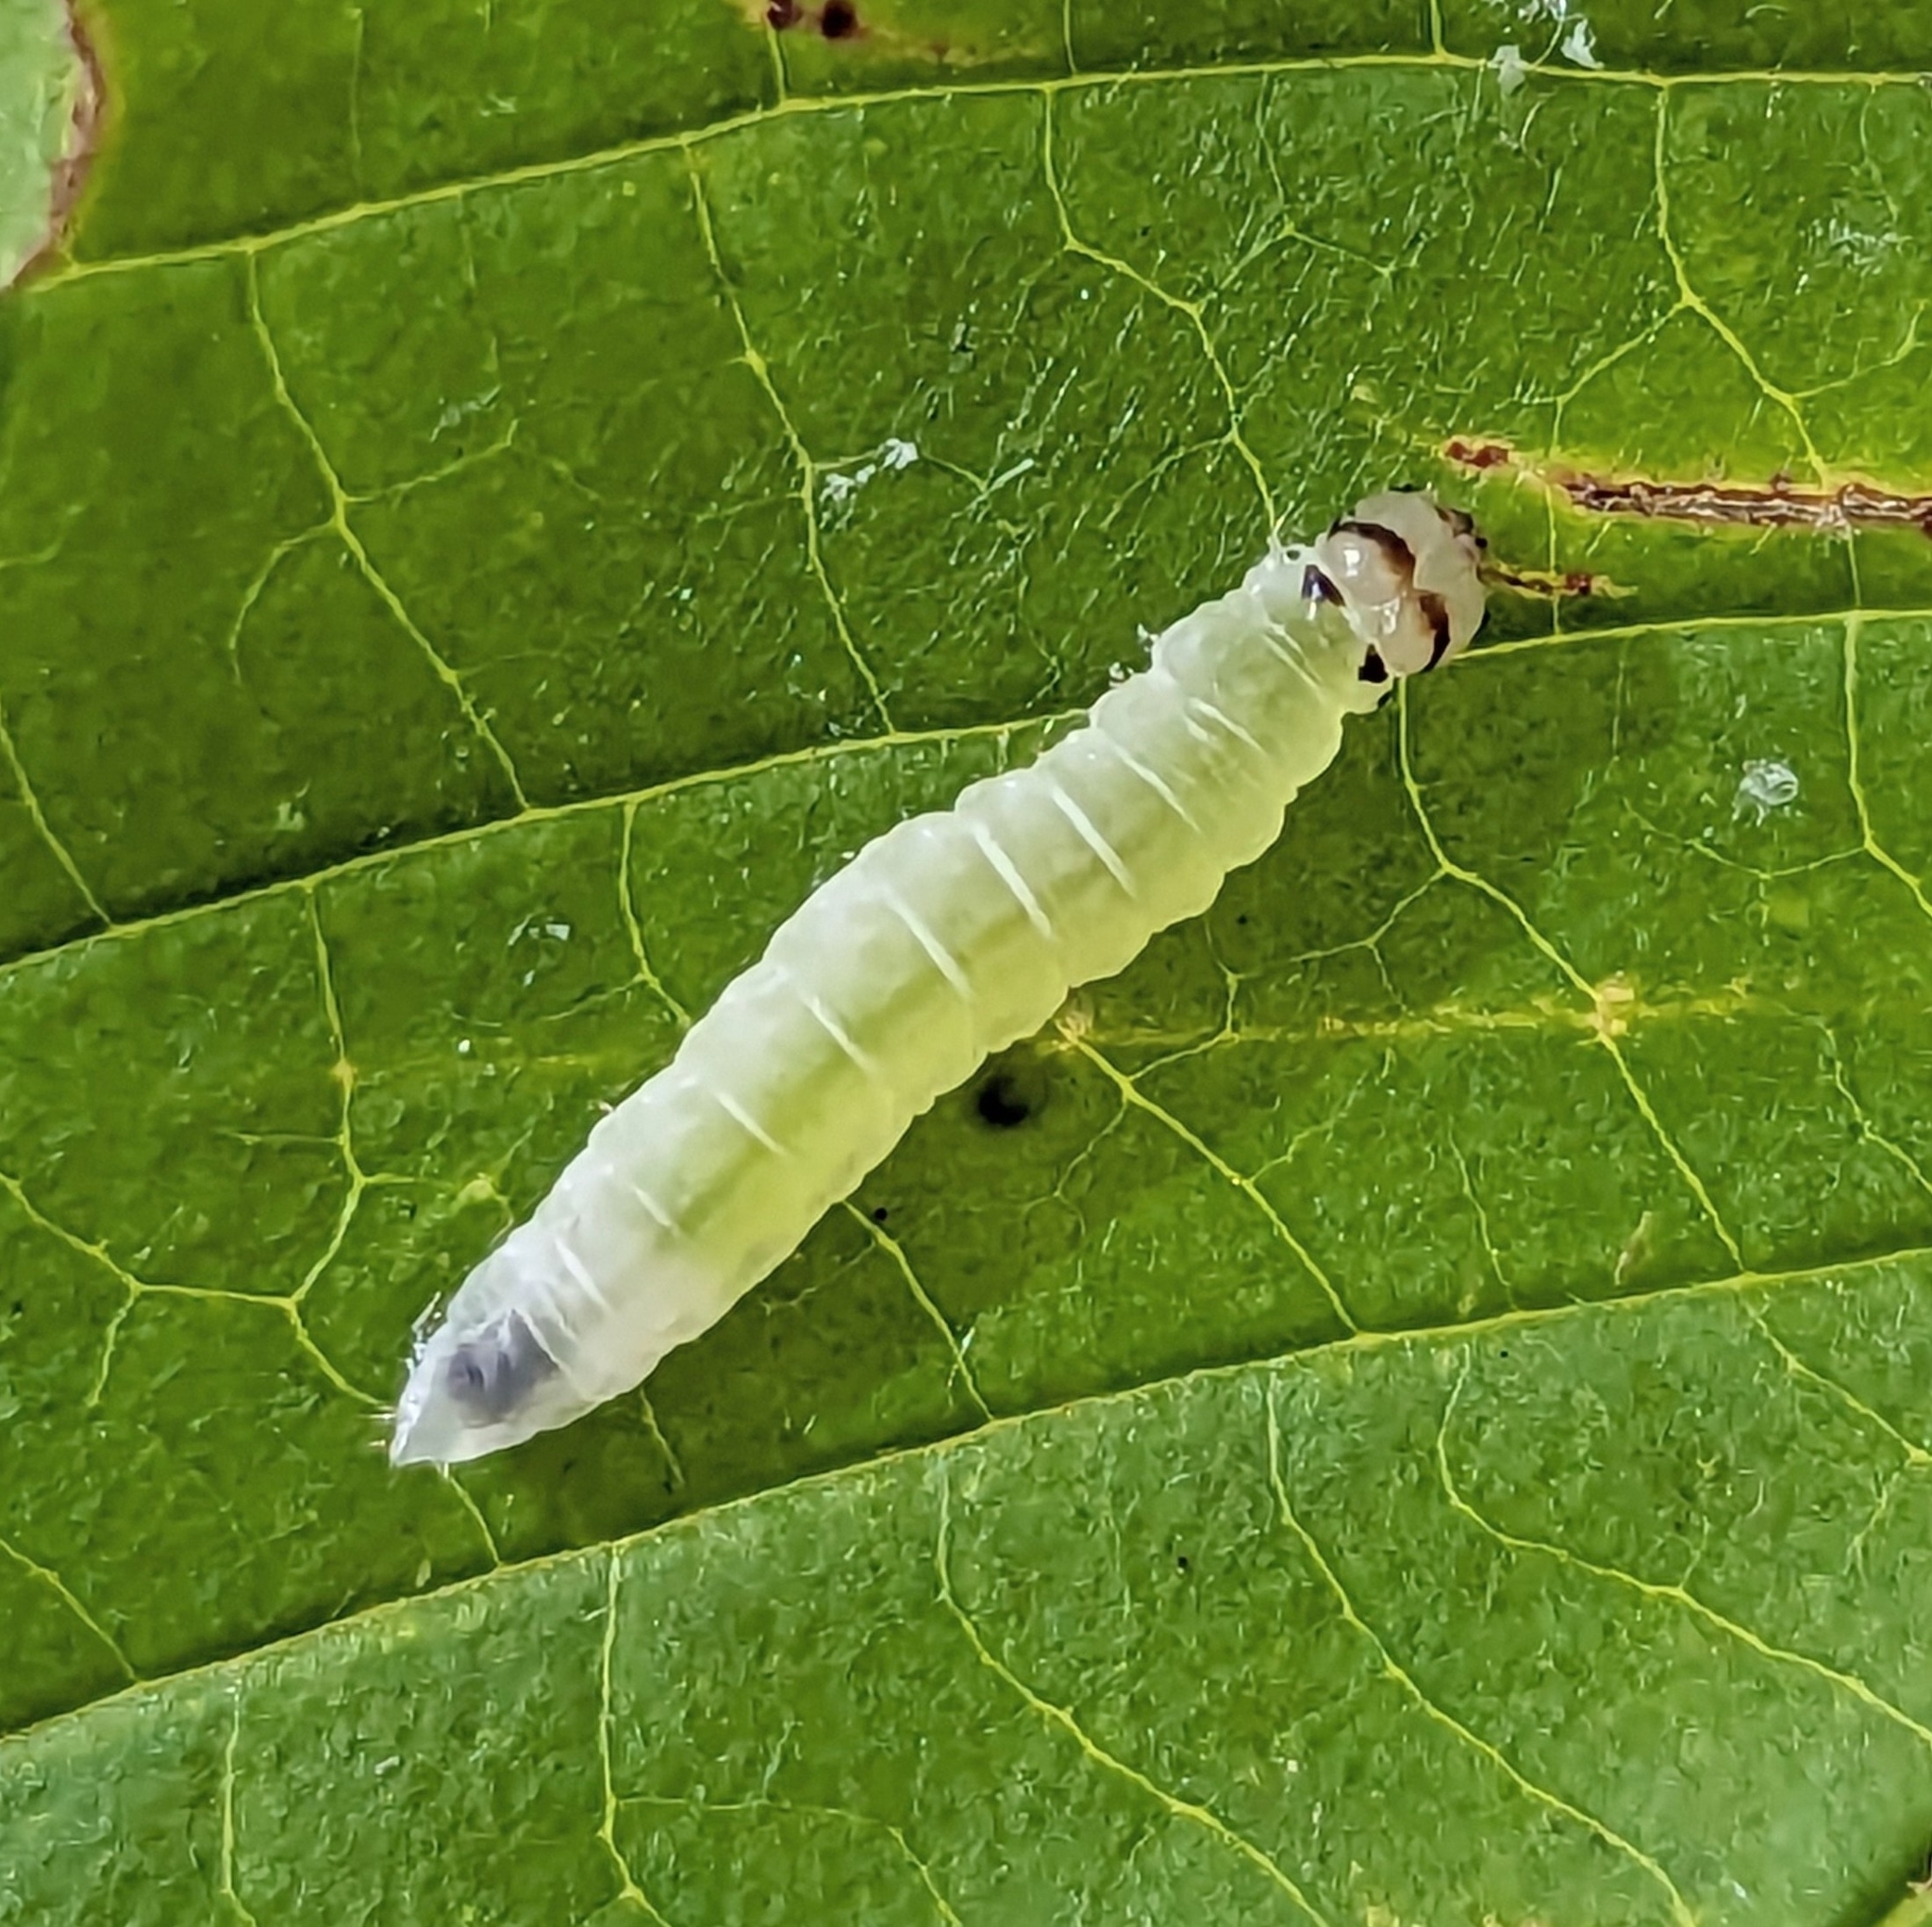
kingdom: Animalia
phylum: Arthropoda
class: Insecta
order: Lepidoptera
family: Drepanidae
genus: Eudeilinia
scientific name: Eudeilinia herminiata
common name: Northern eudeilinea moth
